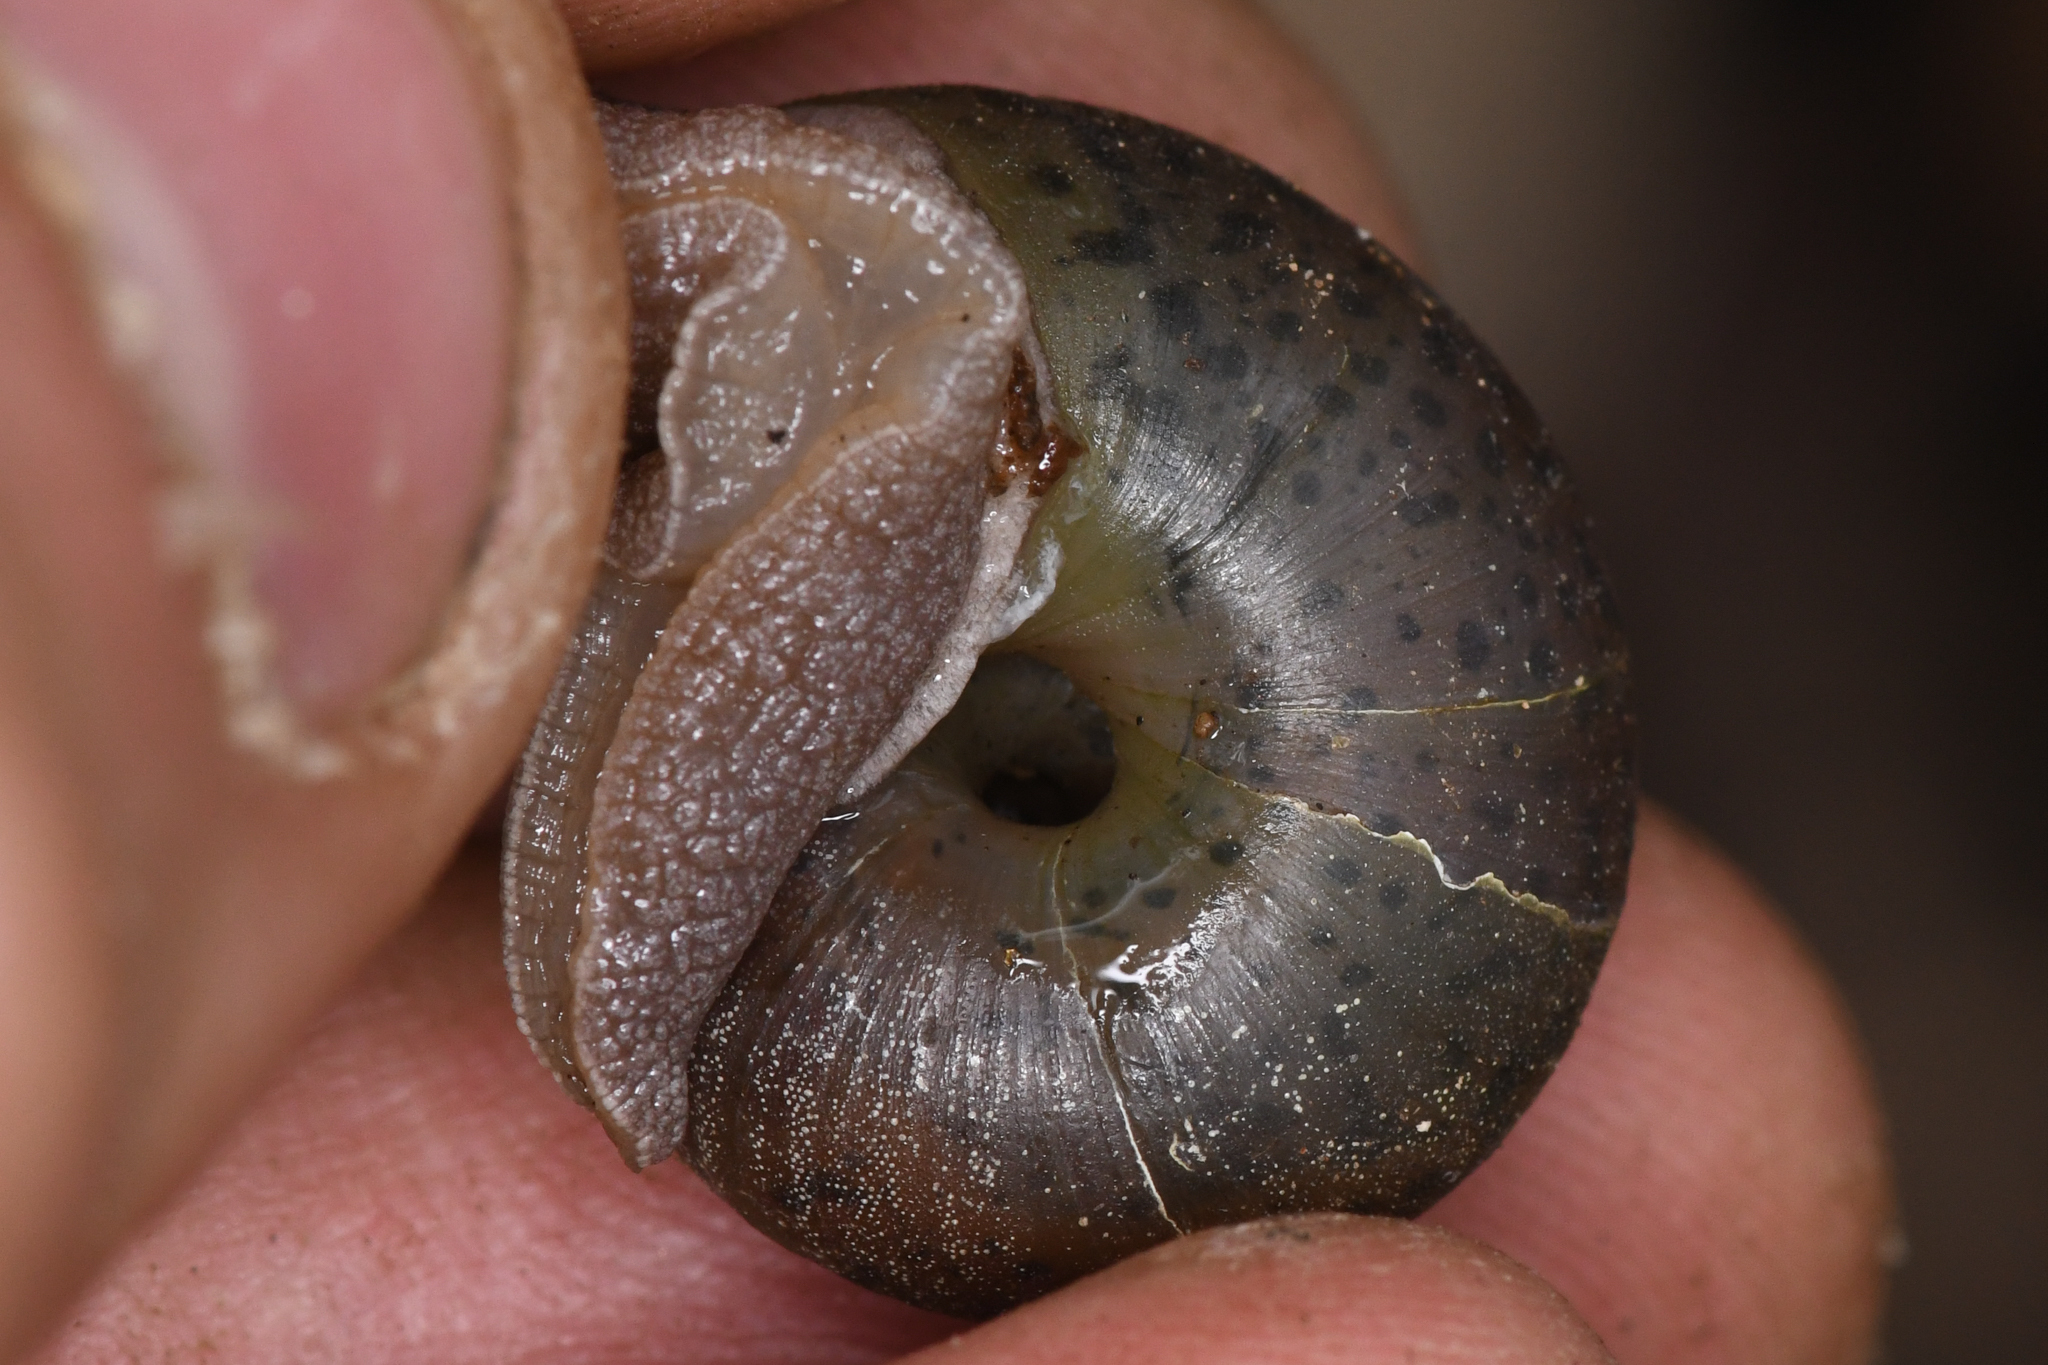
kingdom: Animalia
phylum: Mollusca
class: Gastropoda
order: Stylommatophora
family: Xanthonychidae
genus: Helminthoglypta
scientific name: Helminthoglypta thermimontis
